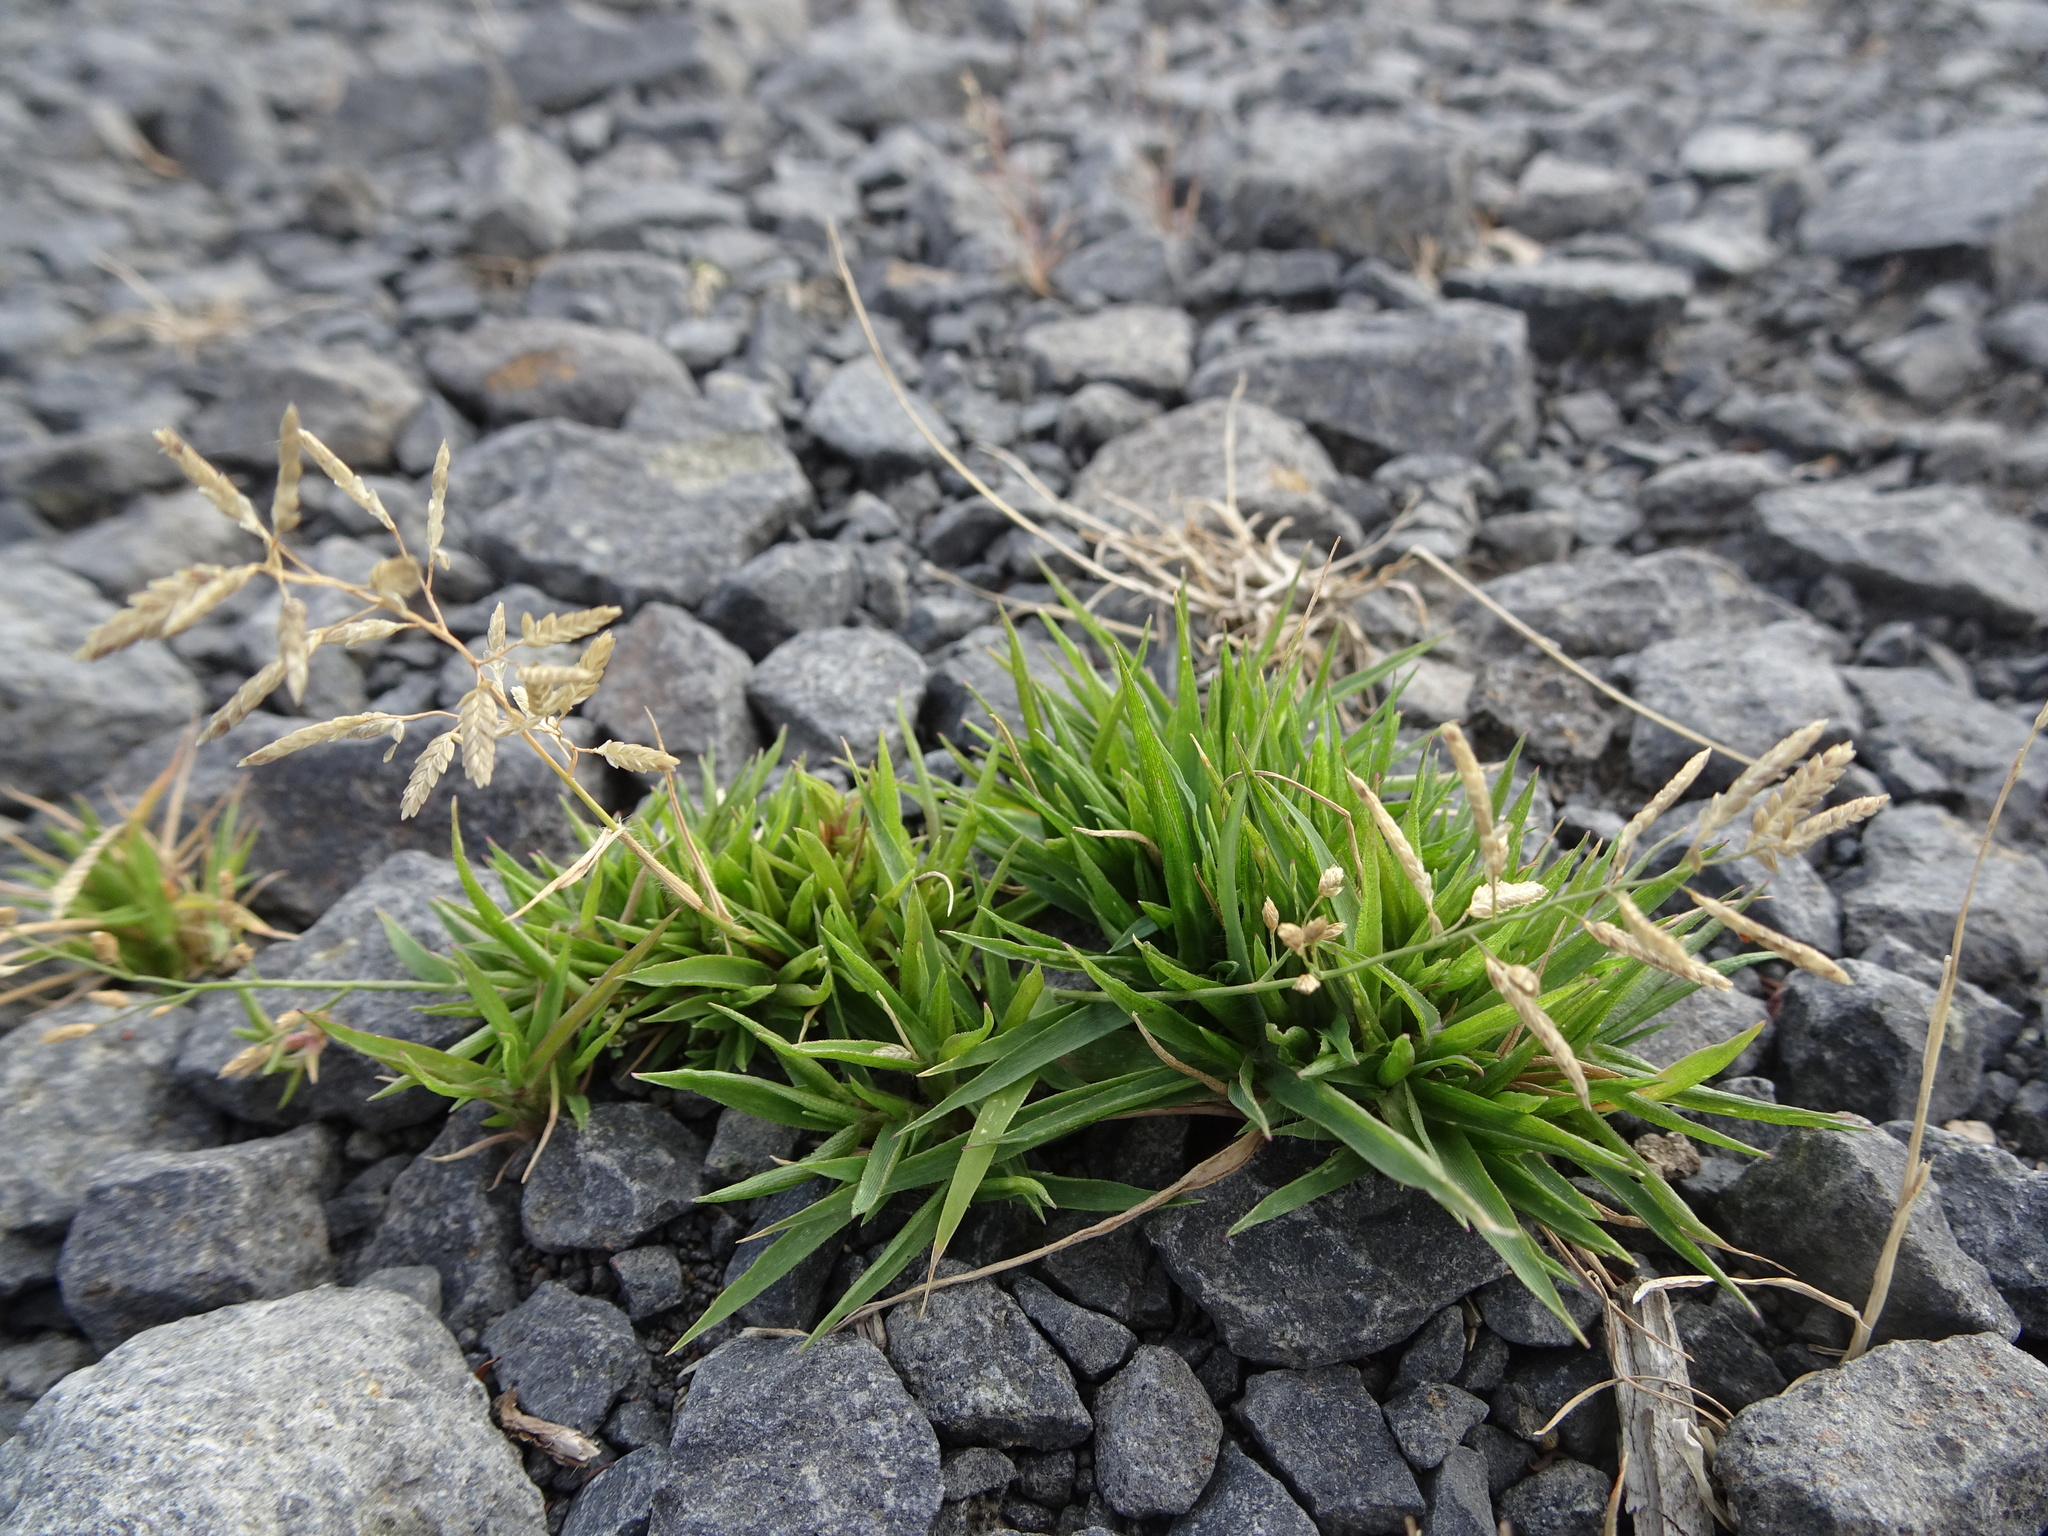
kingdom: Plantae
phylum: Tracheophyta
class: Liliopsida
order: Poales
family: Poaceae
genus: Eragrostis
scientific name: Eragrostis minor
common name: Small love-grass
